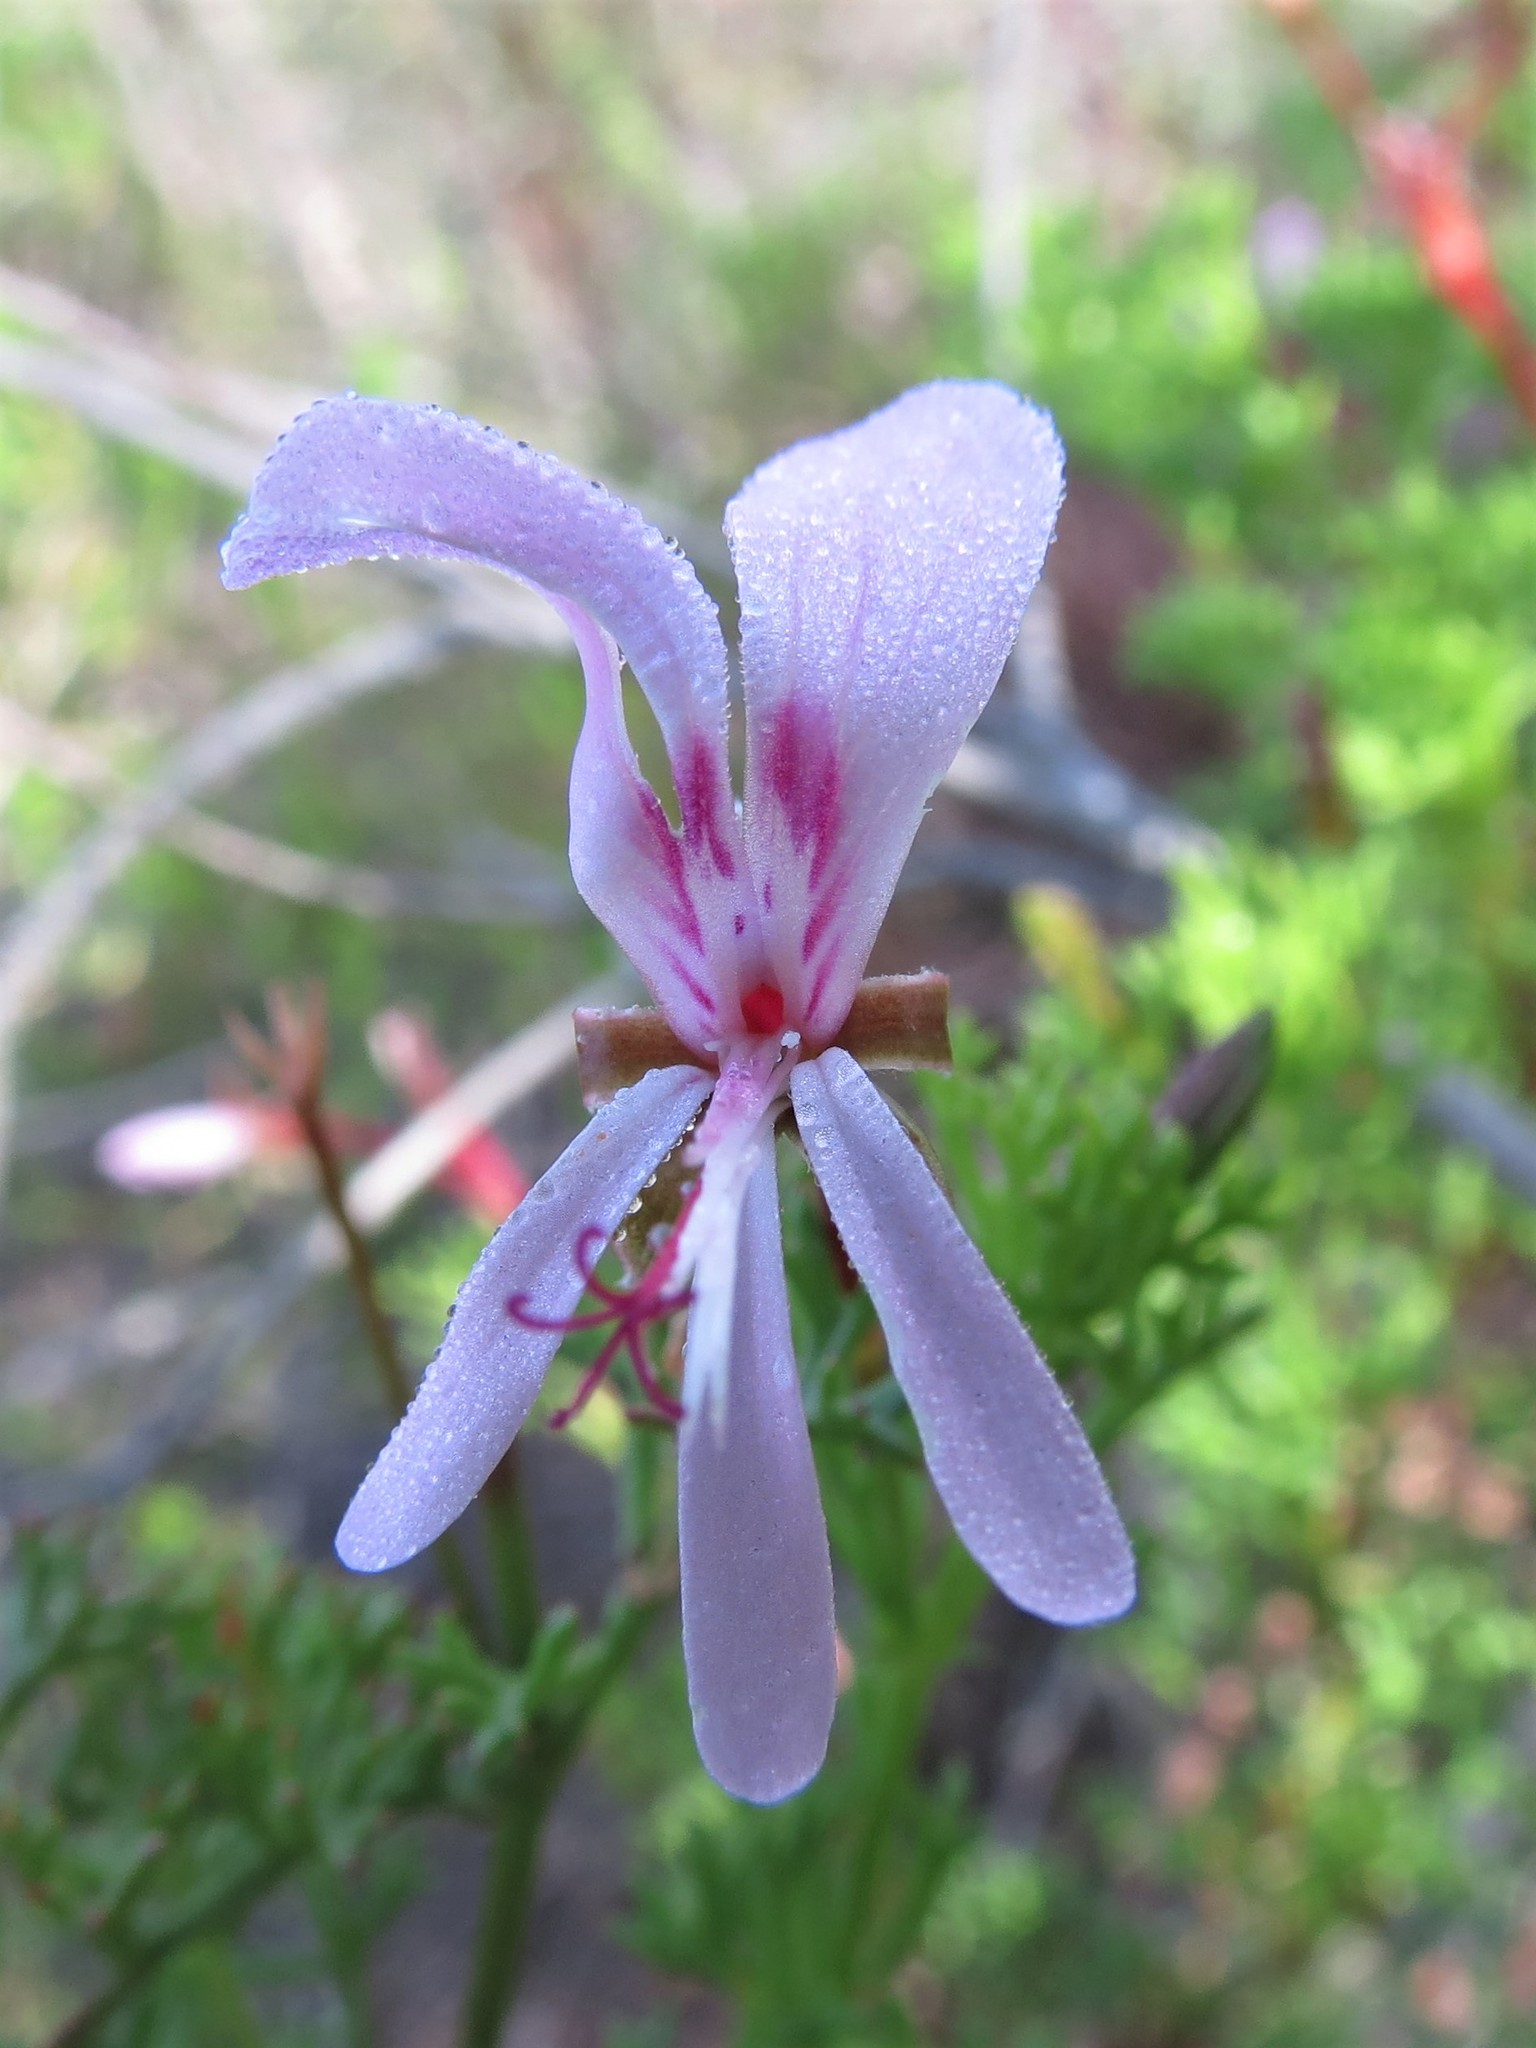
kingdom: Plantae
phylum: Tracheophyta
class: Magnoliopsida
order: Geraniales
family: Geraniaceae
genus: Pelargonium
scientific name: Pelargonium fruticosum
